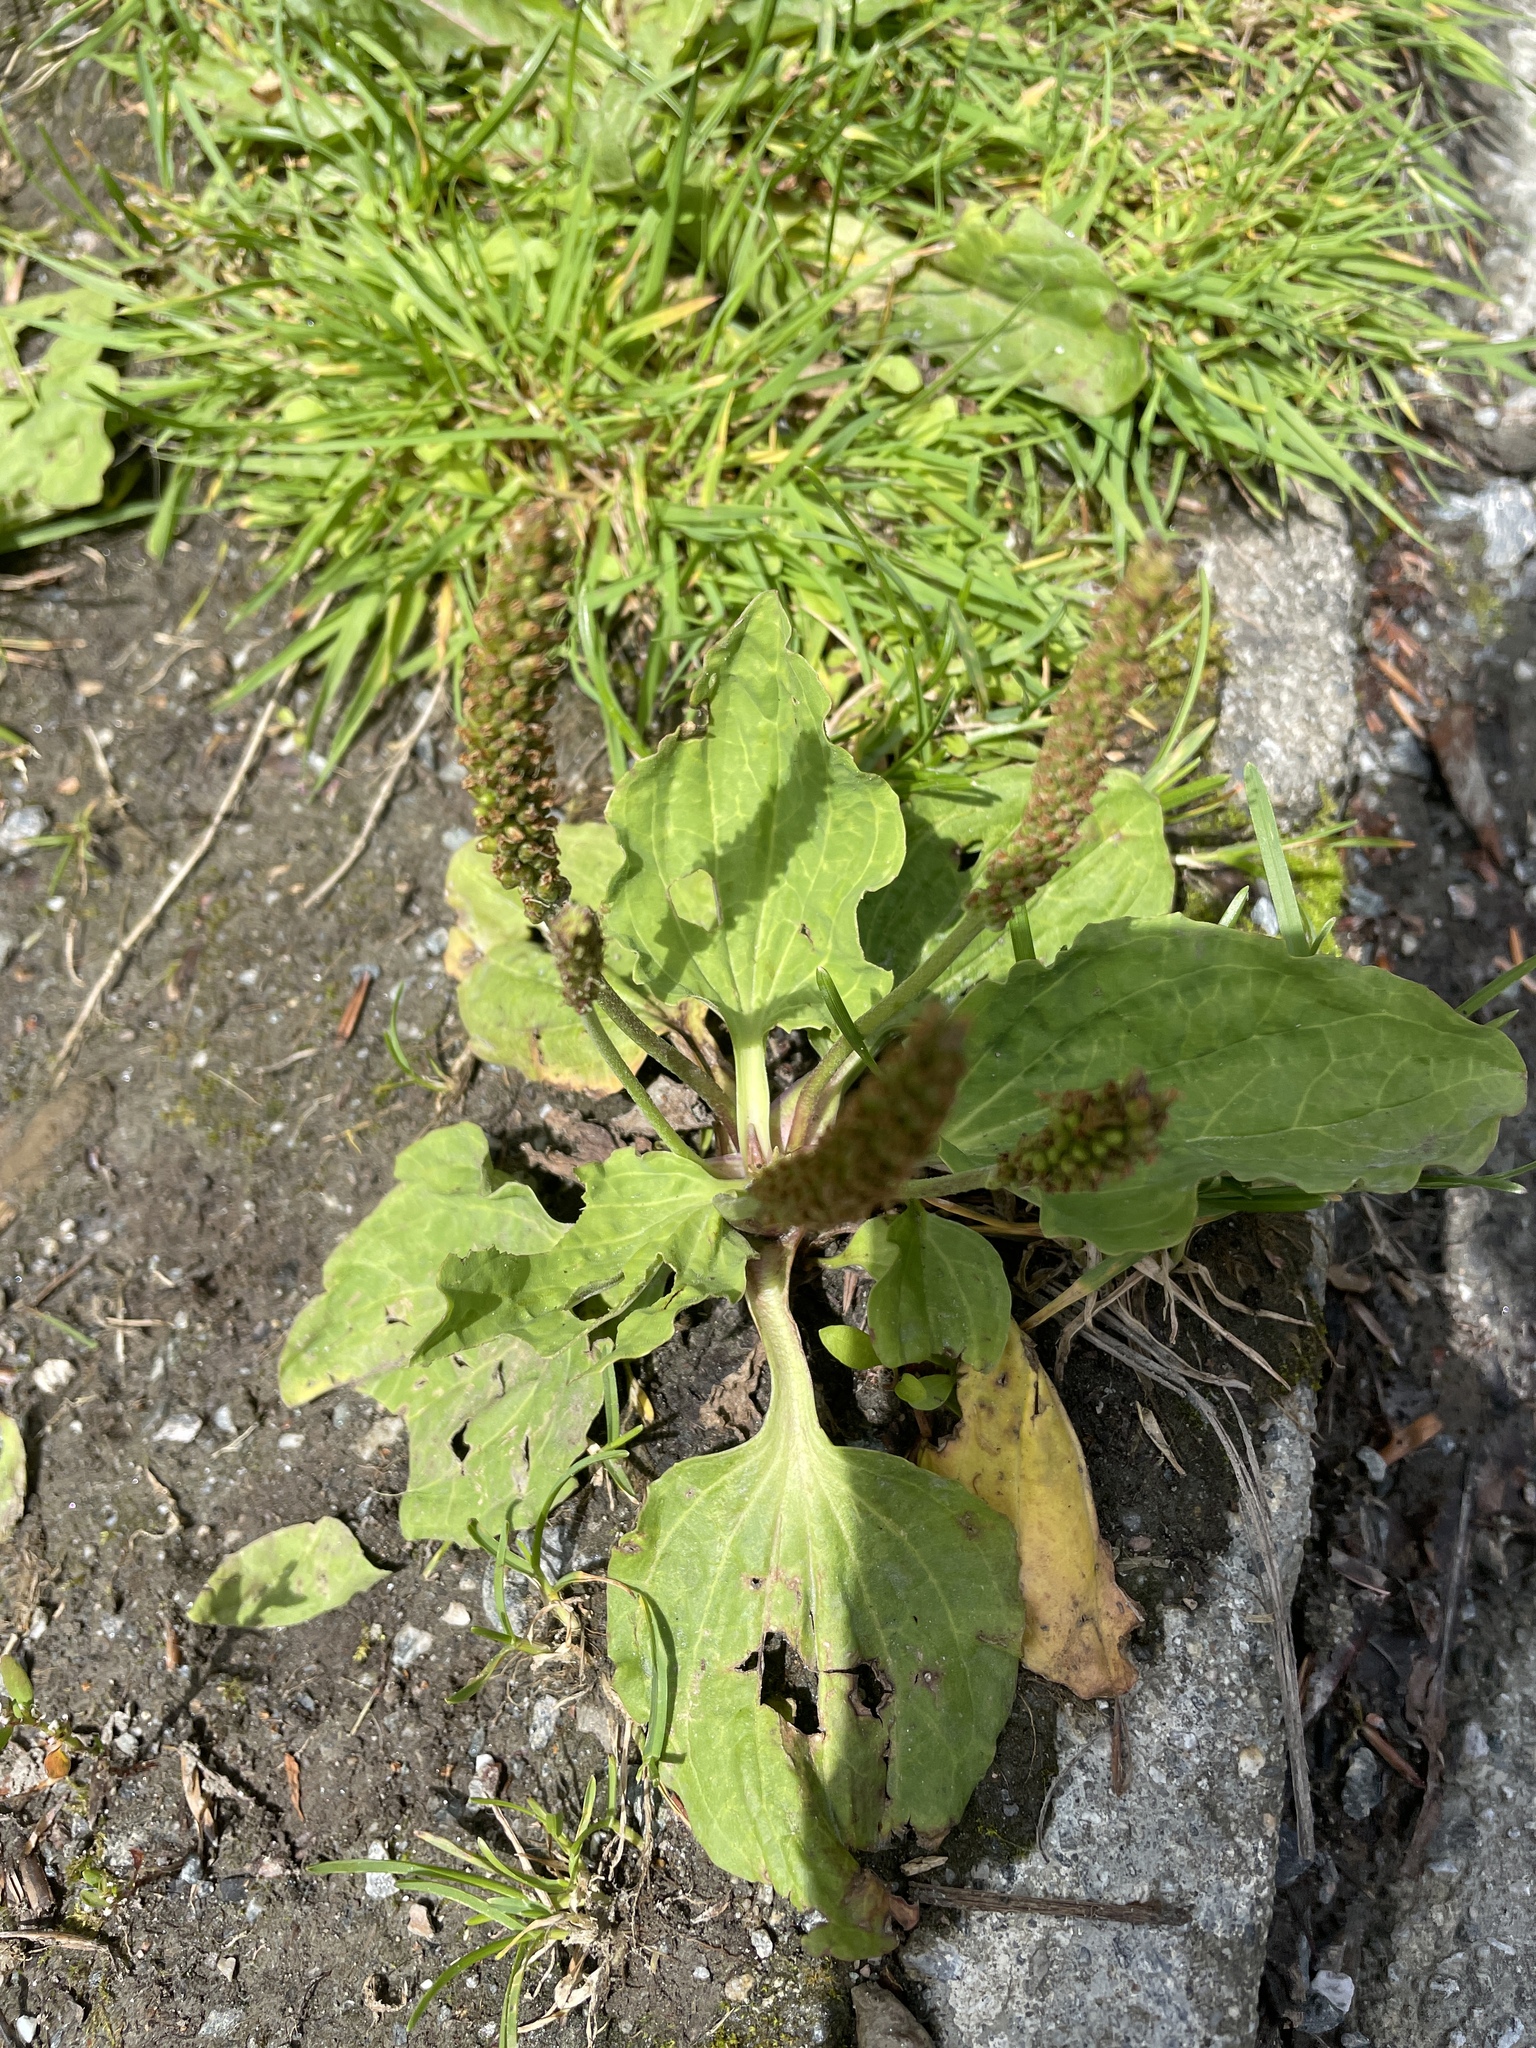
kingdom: Plantae
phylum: Tracheophyta
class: Magnoliopsida
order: Lamiales
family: Plantaginaceae
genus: Plantago
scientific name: Plantago major
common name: Common plantain
